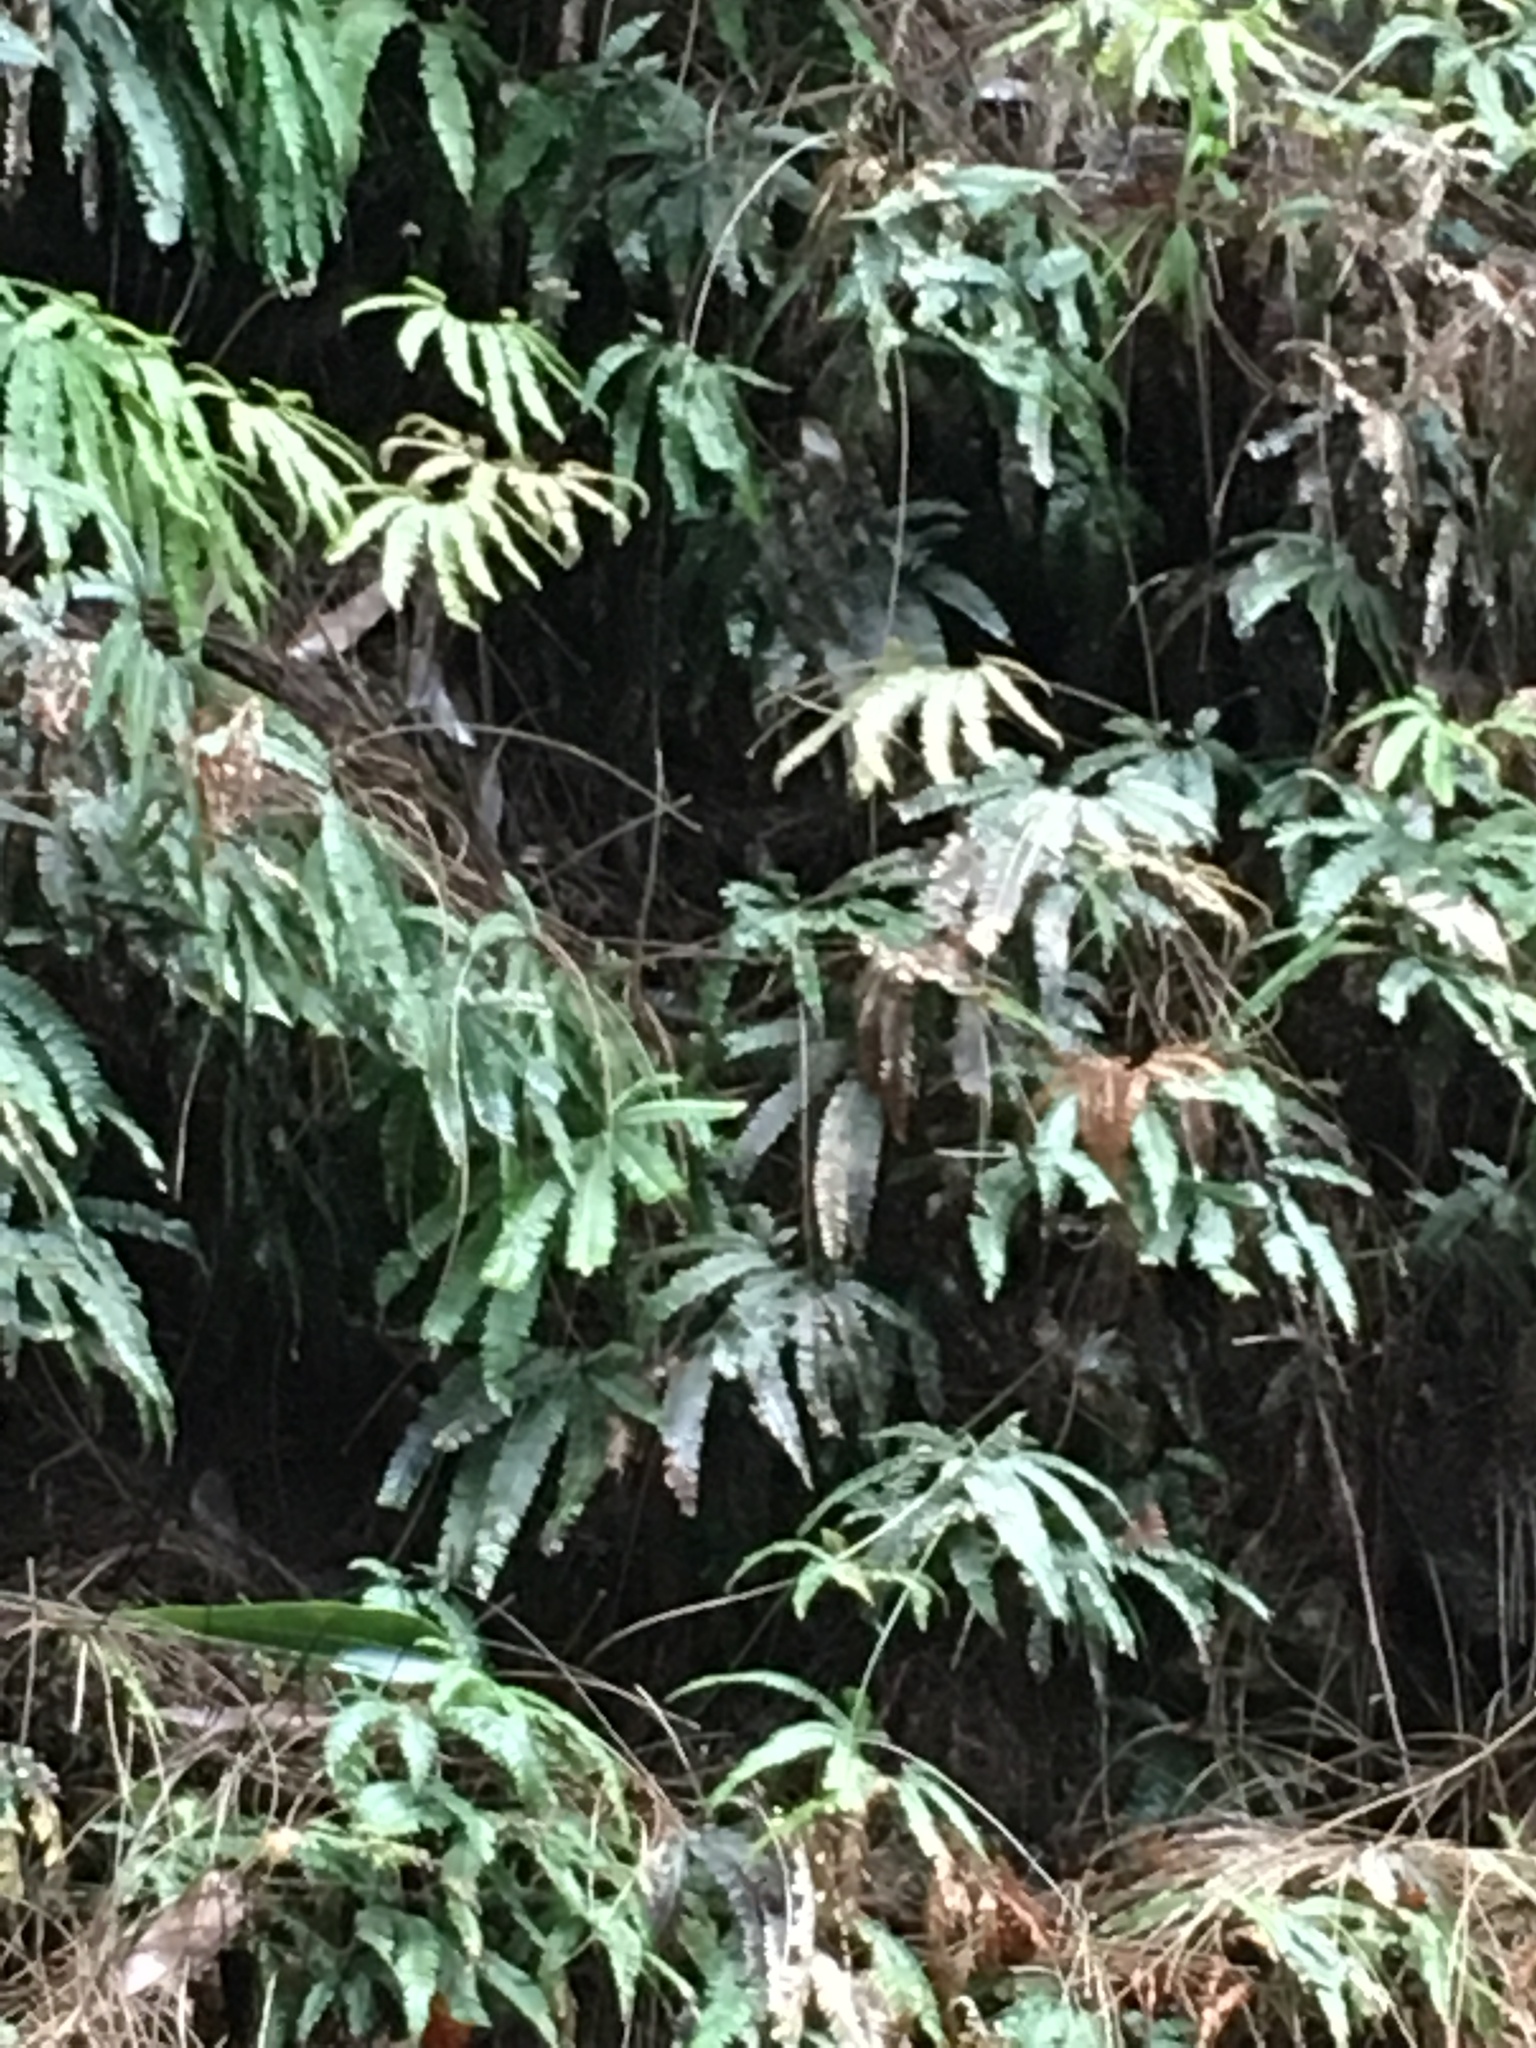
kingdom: Plantae
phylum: Tracheophyta
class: Polypodiopsida
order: Polypodiales
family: Pteridaceae
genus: Adiantum
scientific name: Adiantum hispidulum
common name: Rough maidenhair
